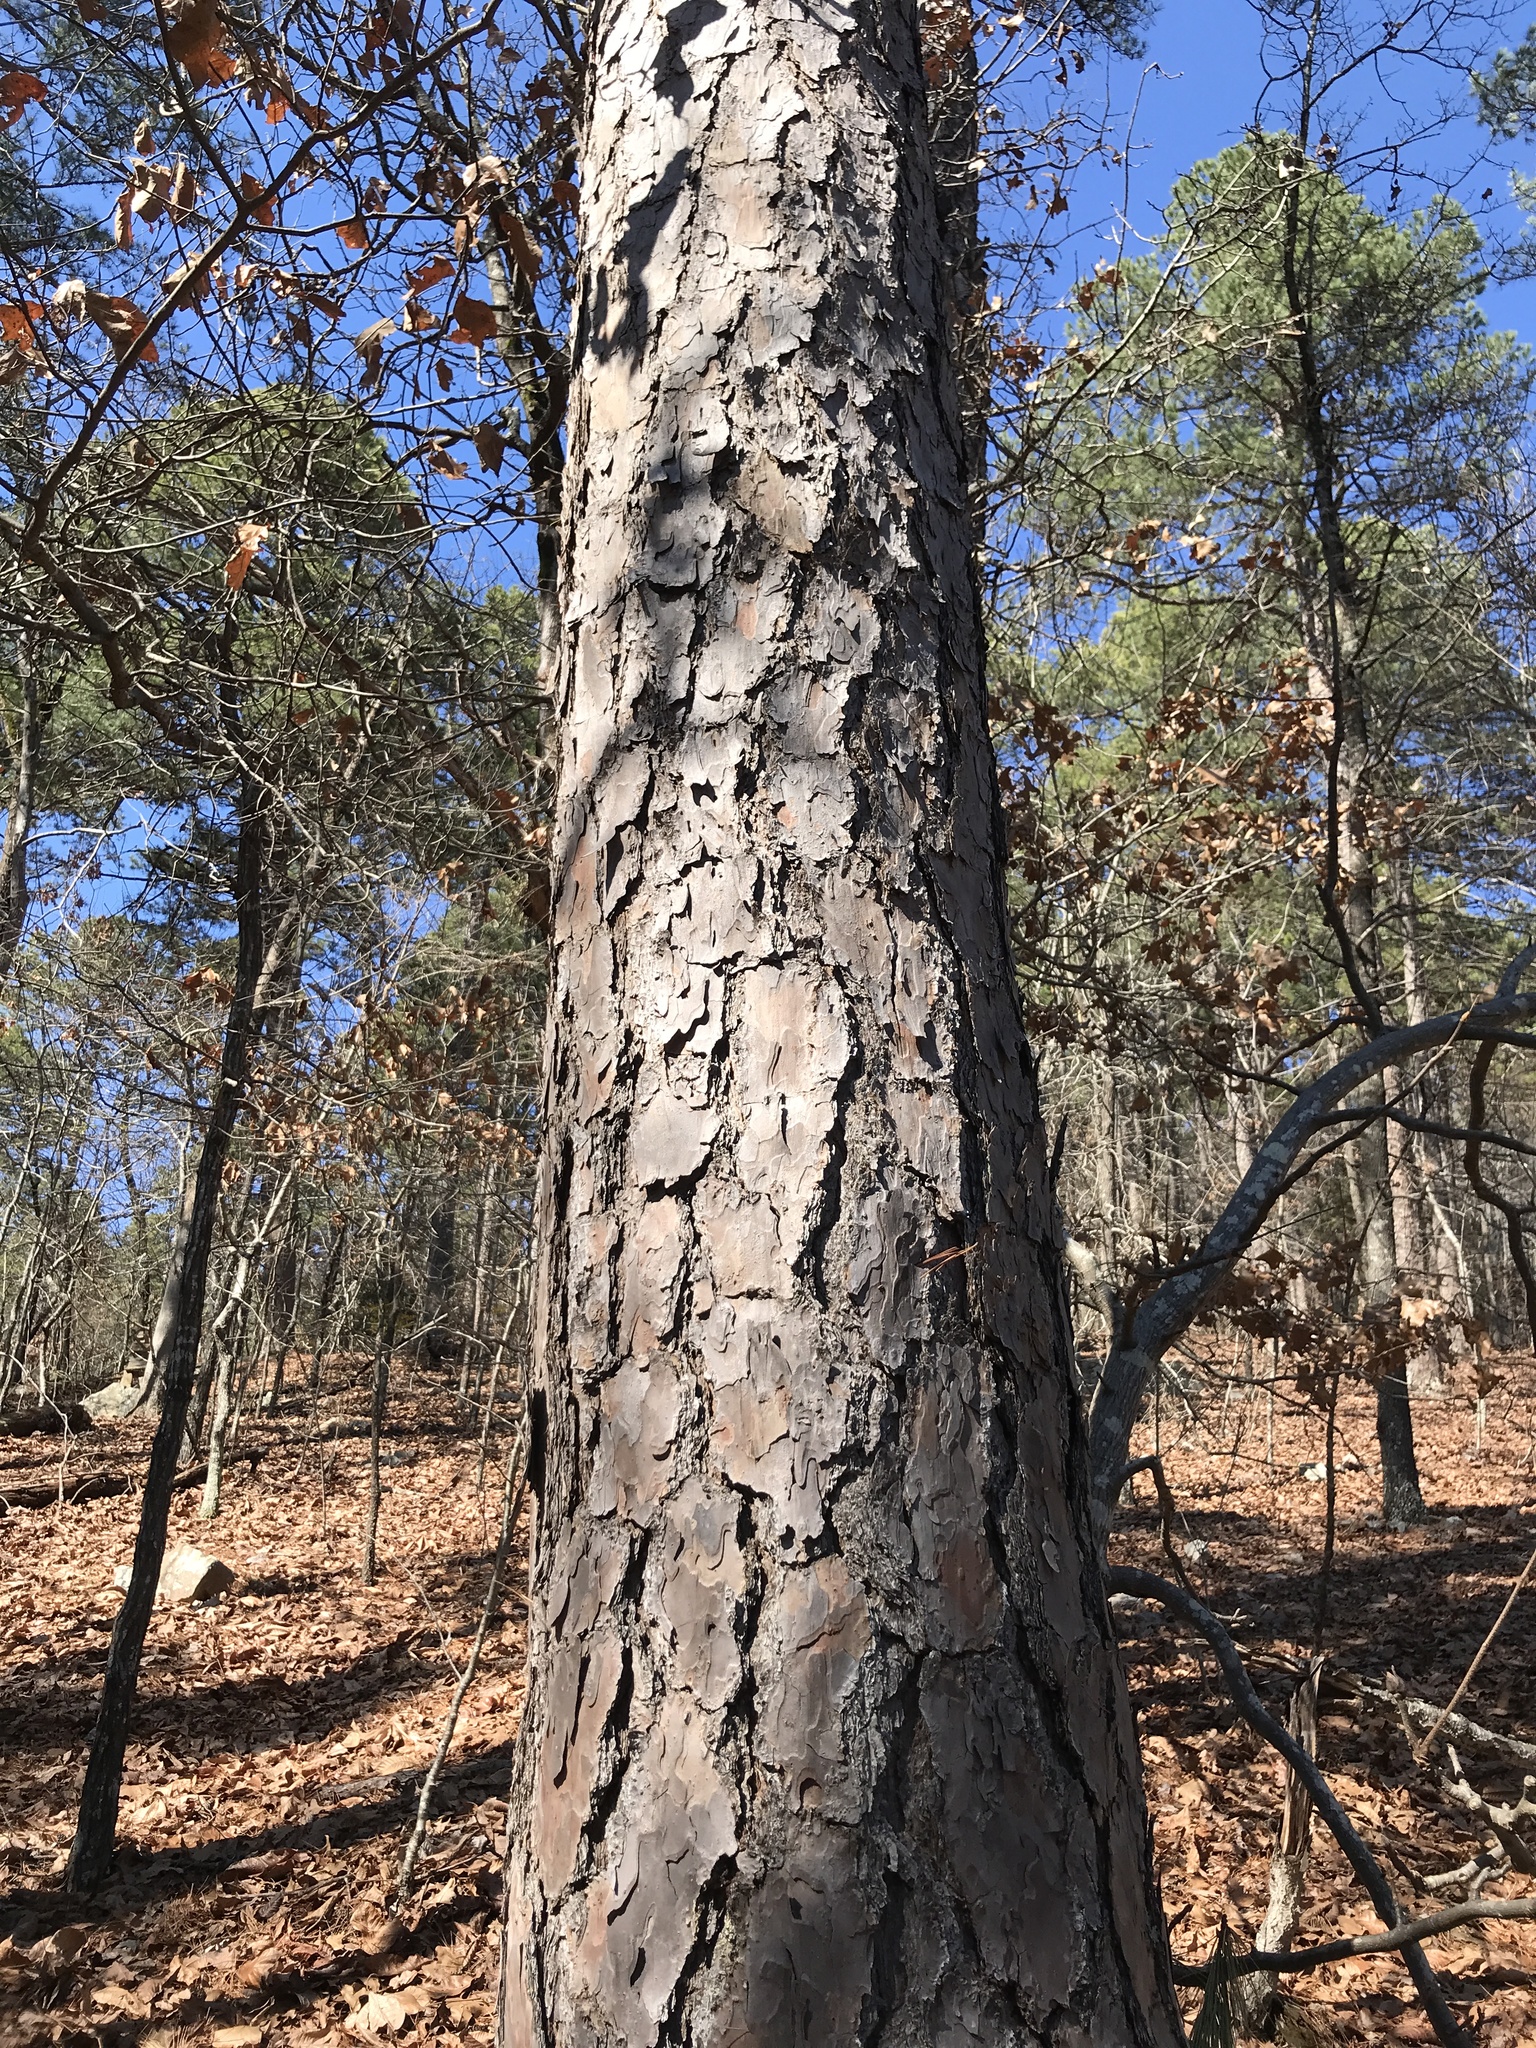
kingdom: Plantae
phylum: Tracheophyta
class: Pinopsida
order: Pinales
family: Pinaceae
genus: Pinus
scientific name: Pinus echinata
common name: Shortleaf pine
